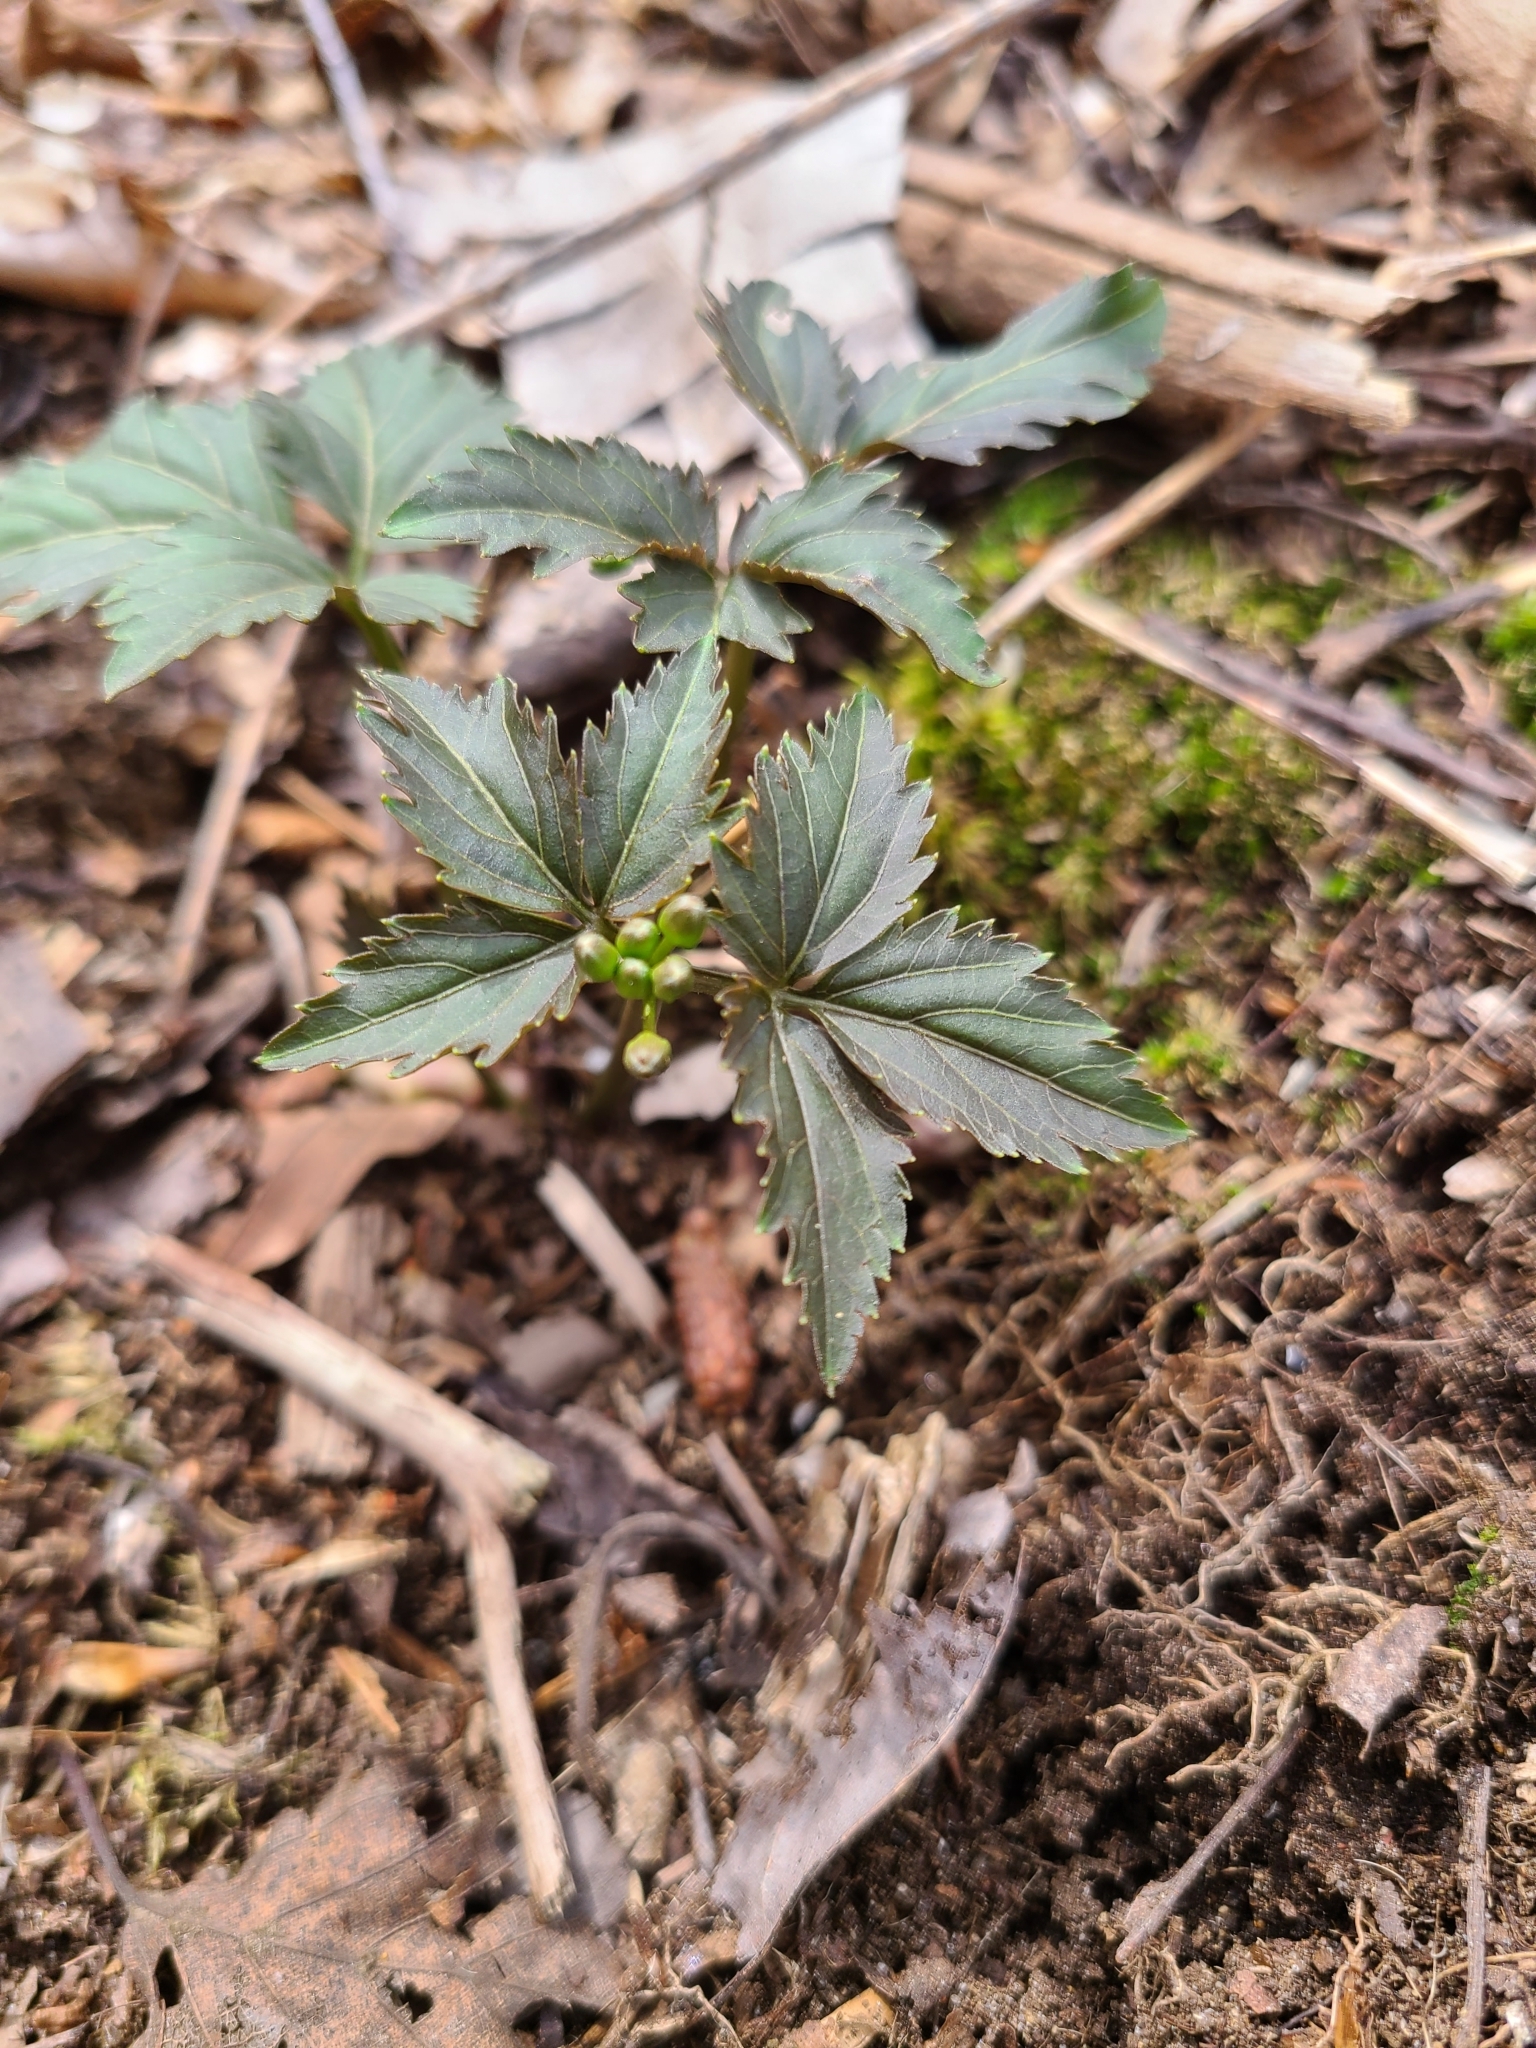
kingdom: Plantae
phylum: Tracheophyta
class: Magnoliopsida
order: Brassicales
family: Brassicaceae
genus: Cardamine
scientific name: Cardamine diphylla
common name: Broad-leaved toothwort
